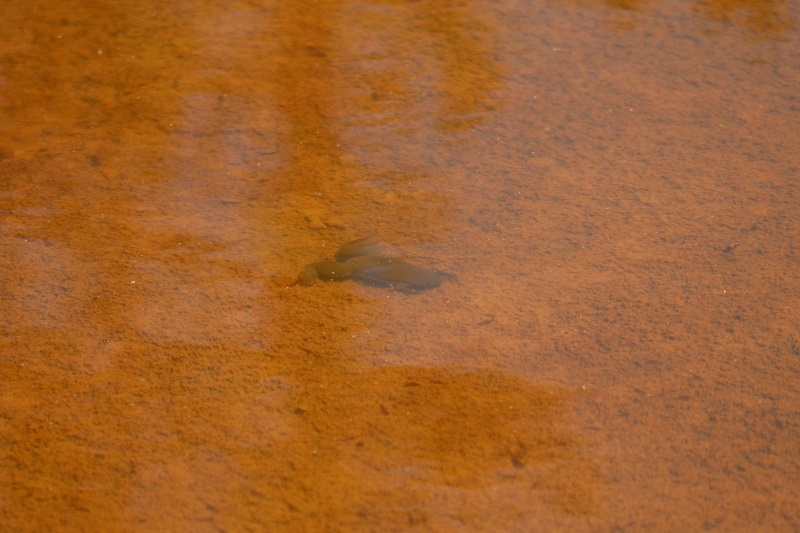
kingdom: Animalia
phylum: Chordata
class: Amphibia
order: Anura
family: Pipidae
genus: Xenopus
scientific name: Xenopus laevis
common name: African clawed frog
